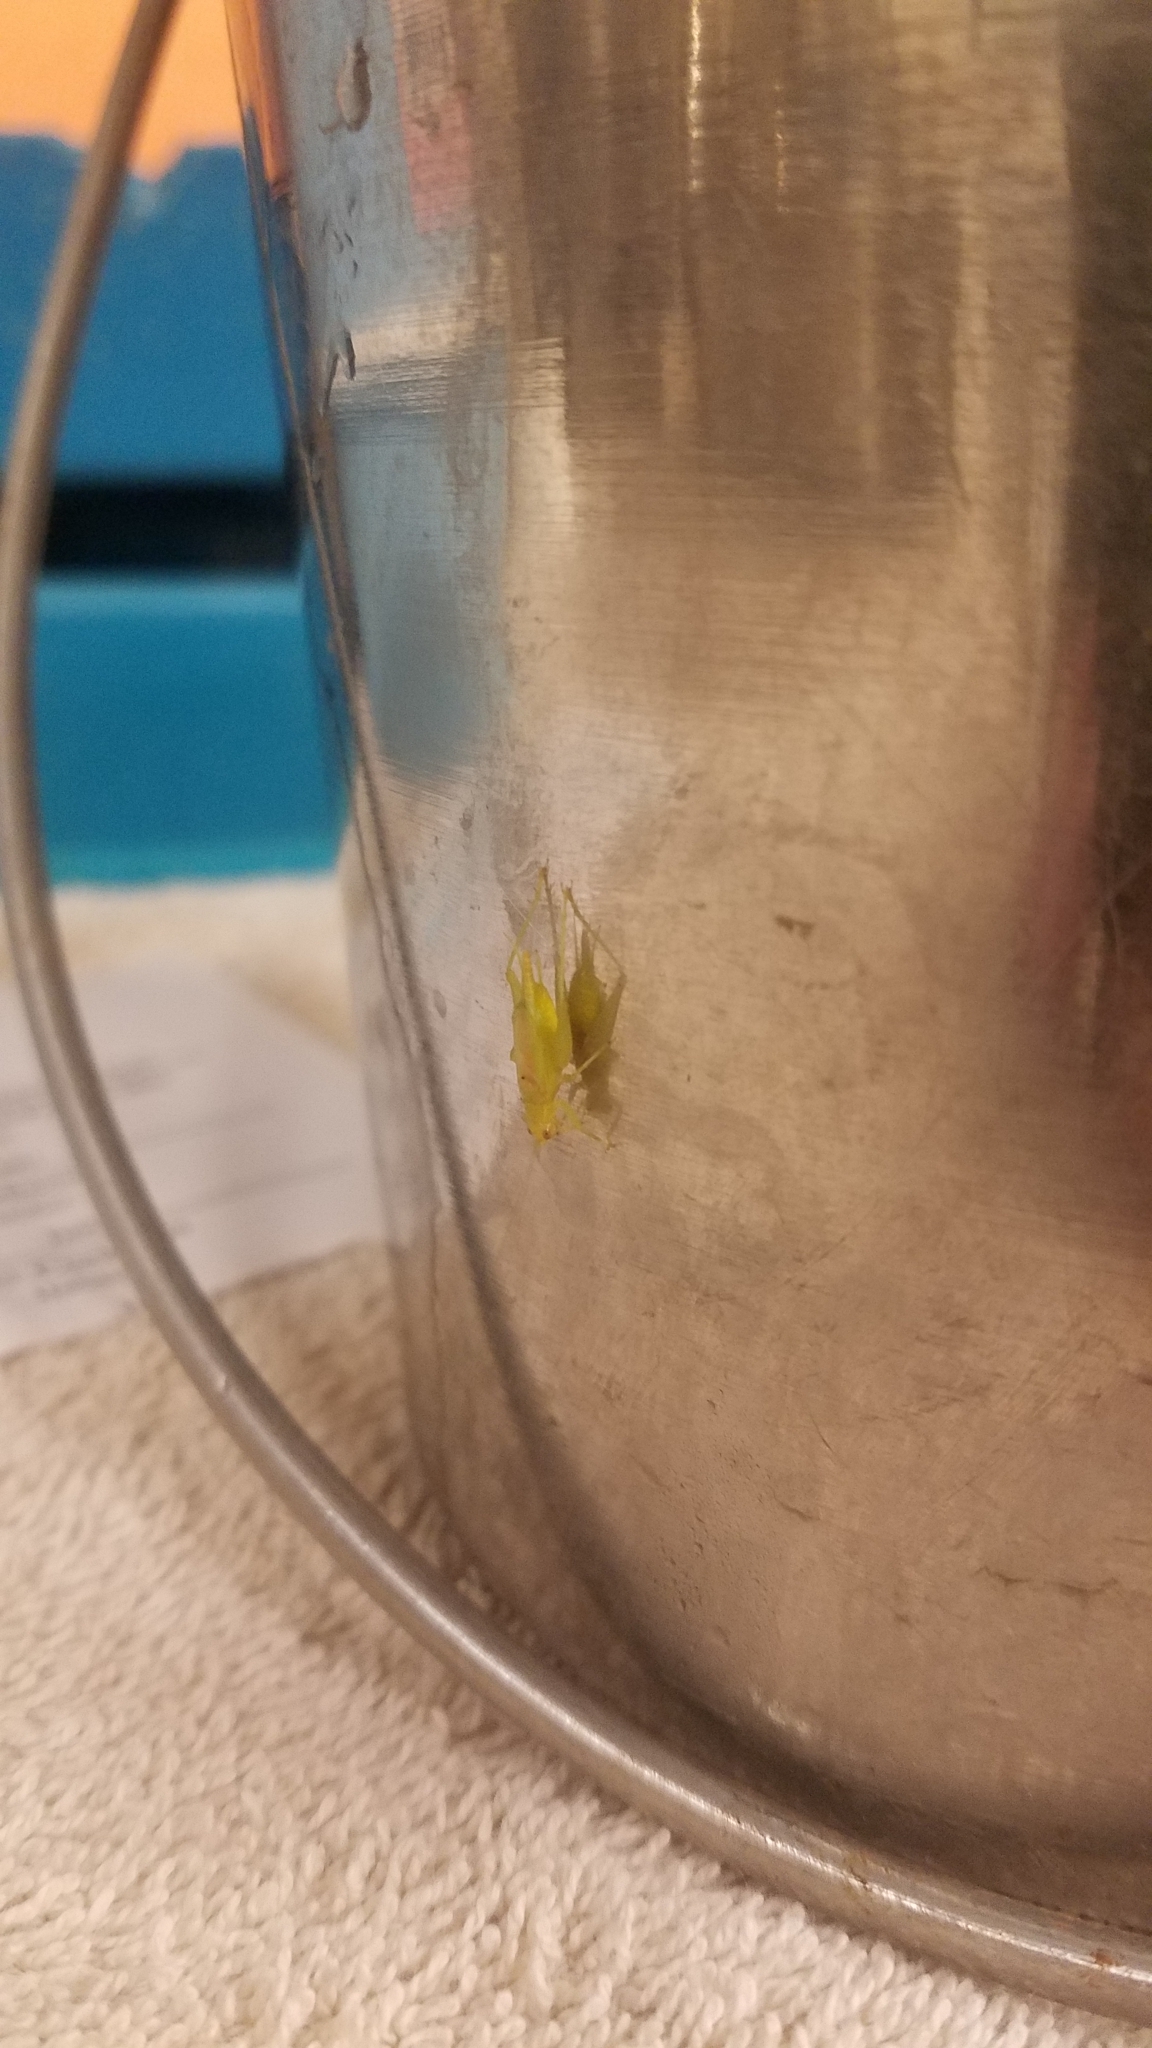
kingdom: Animalia
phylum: Arthropoda
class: Insecta
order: Orthoptera
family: Trigonidiidae
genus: Cyrtoxipha
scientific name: Cyrtoxipha columbiana
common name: Columbian trig
